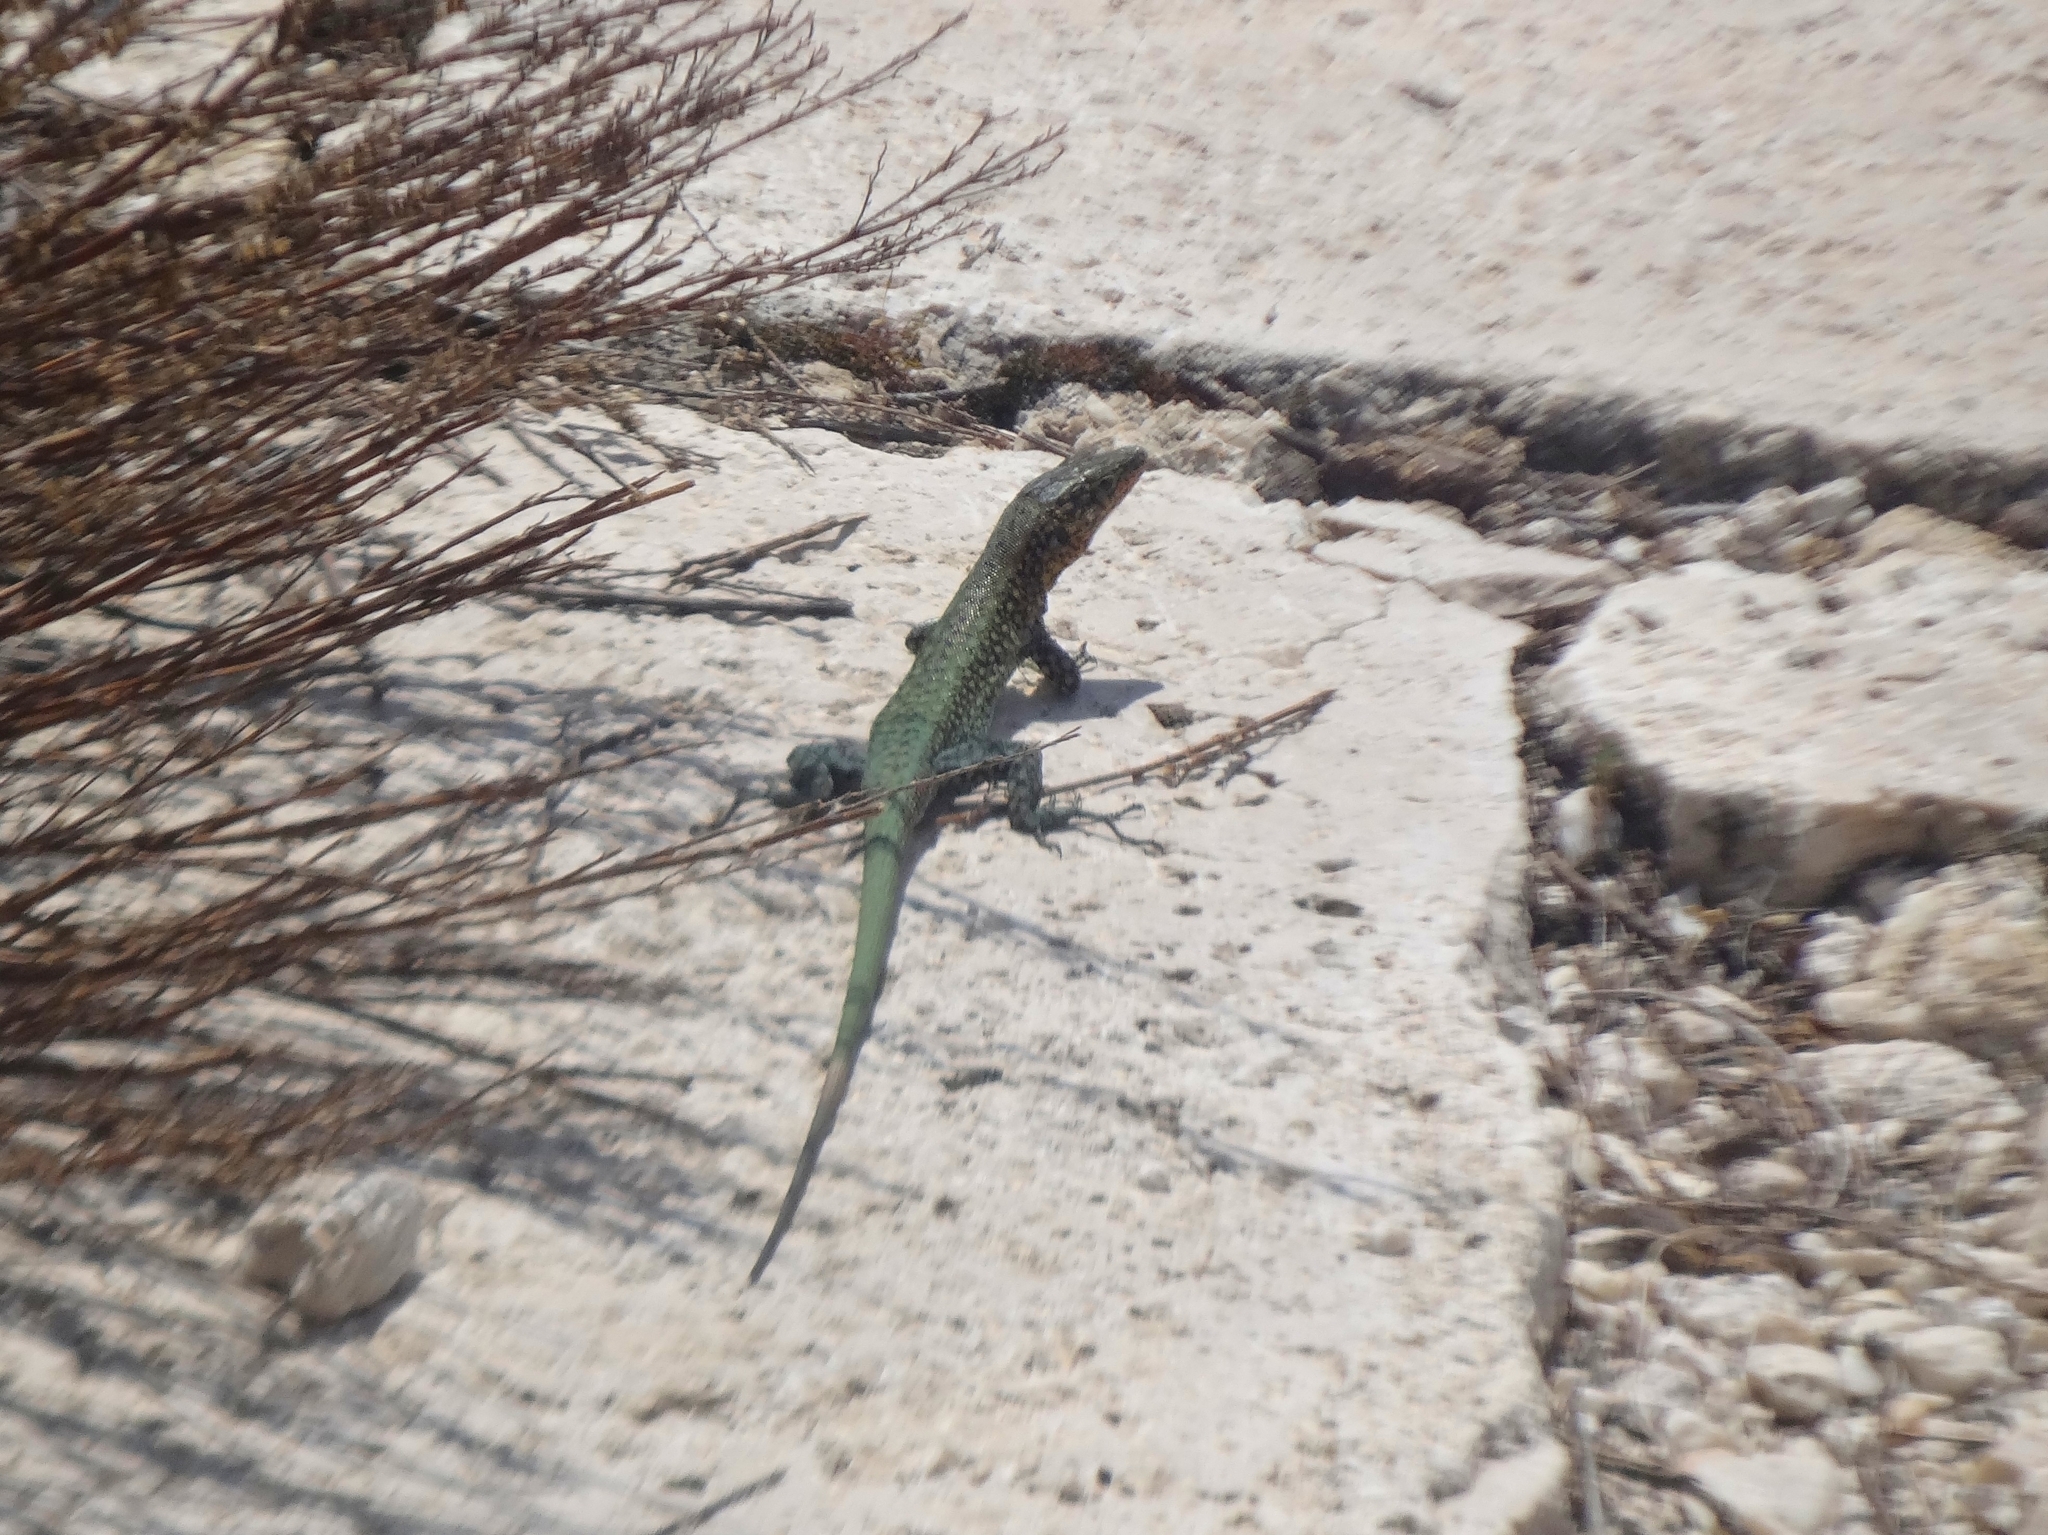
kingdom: Animalia
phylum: Chordata
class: Squamata
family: Lacertidae
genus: Anatololacerta
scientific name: Anatololacerta ibrahimi
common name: Baran’s lizard
